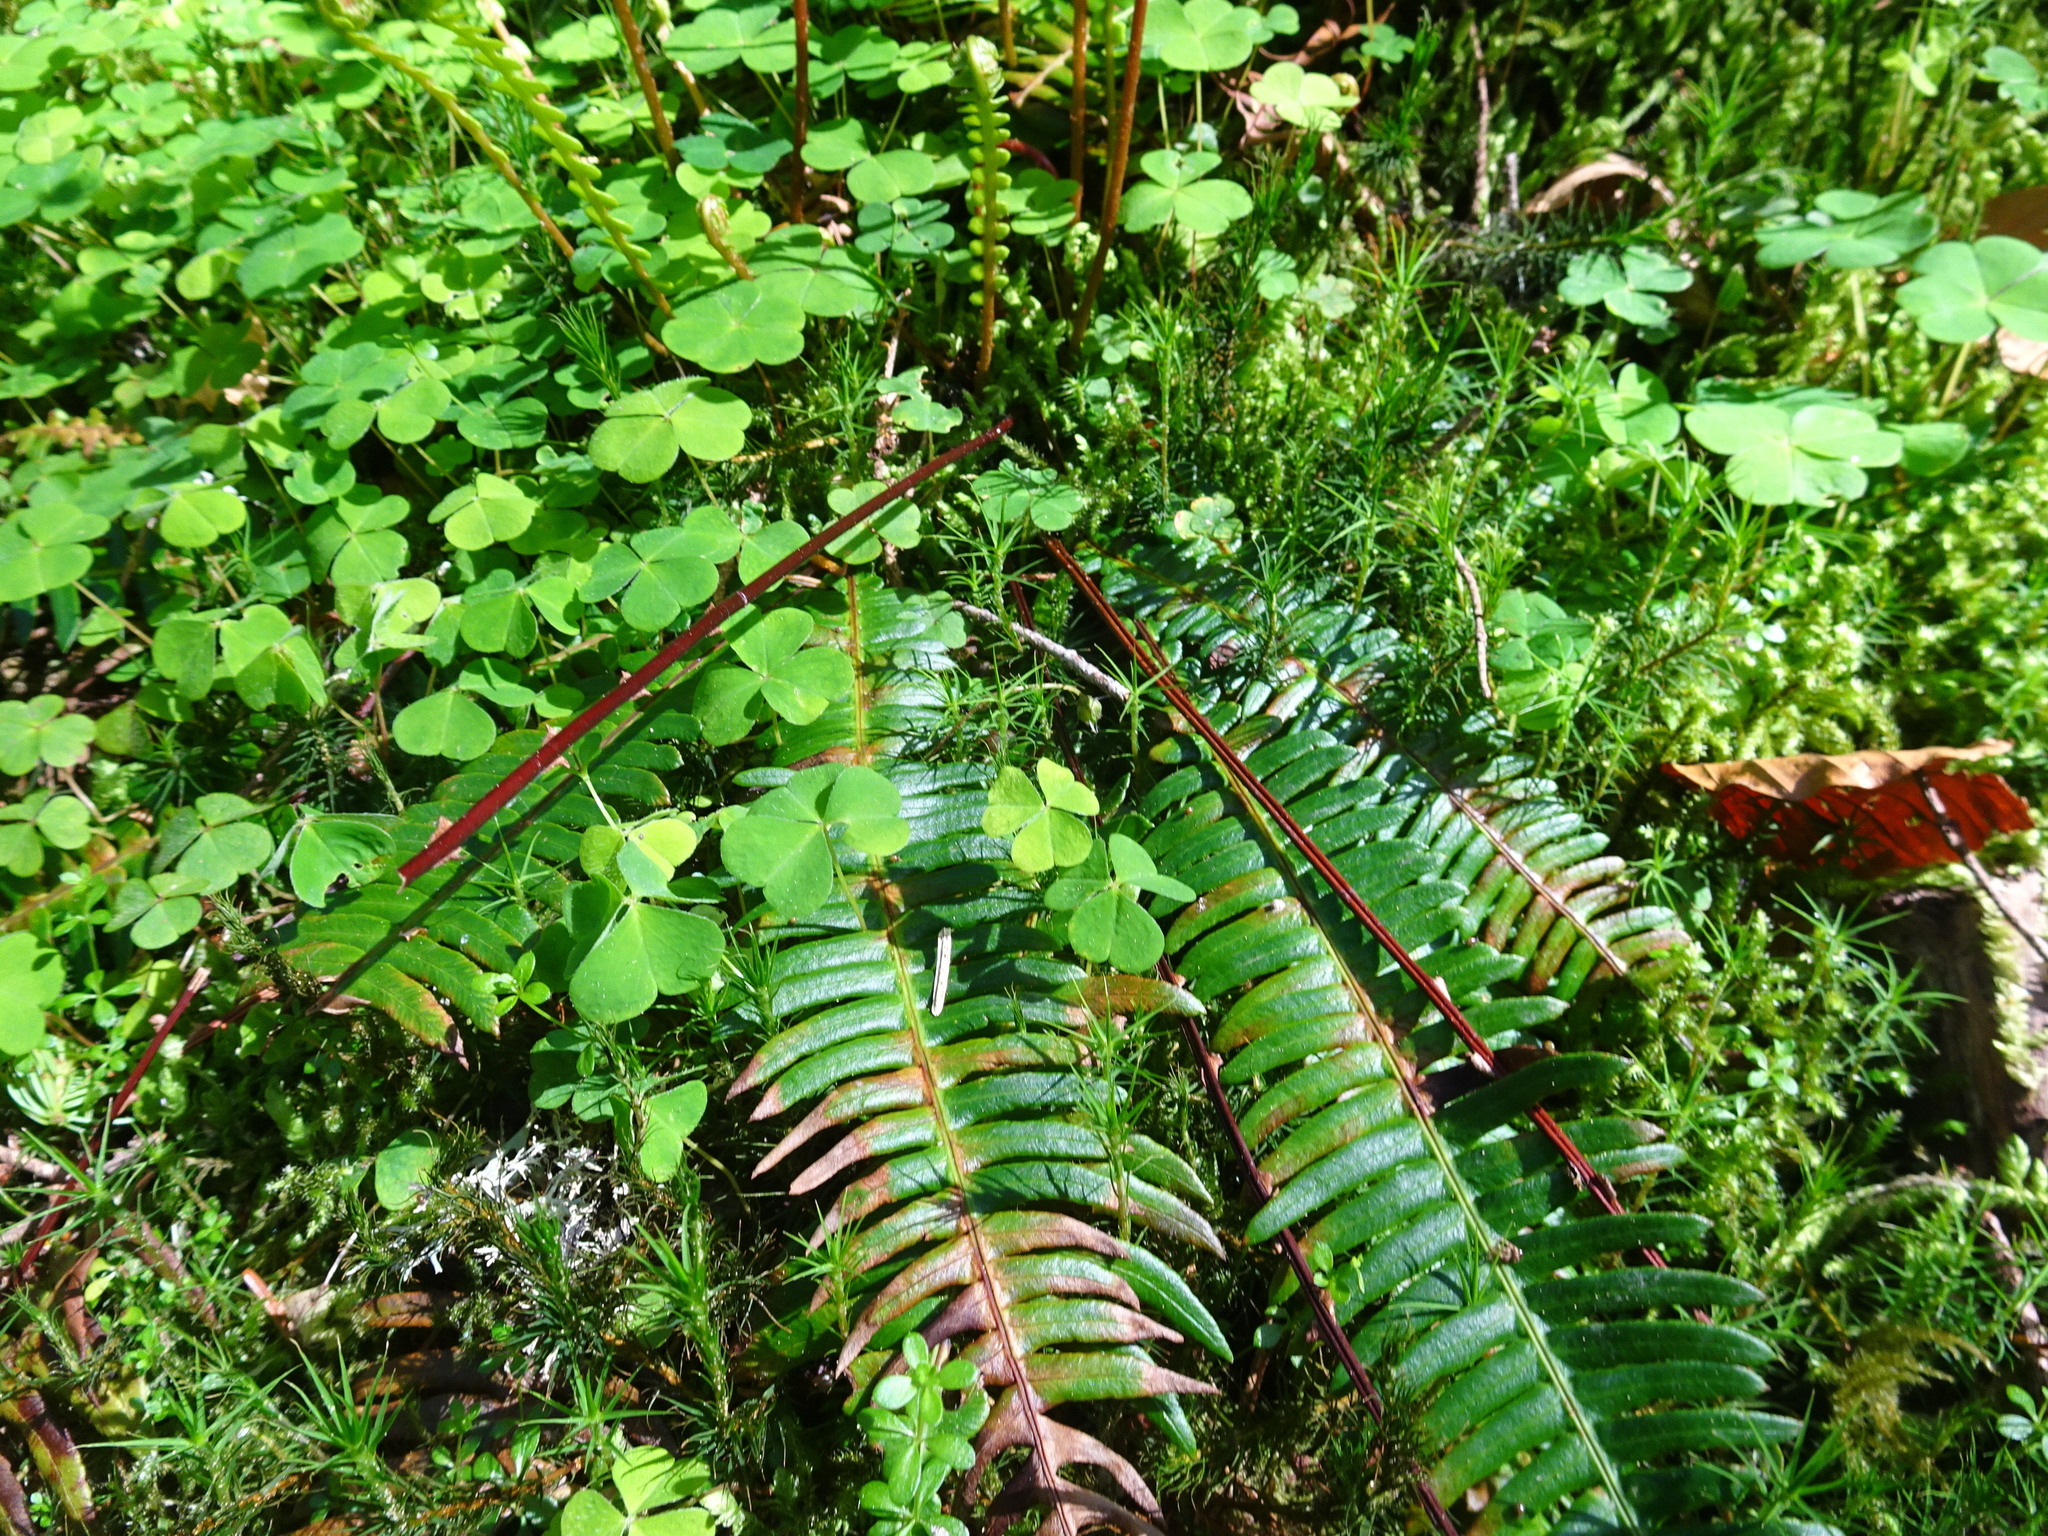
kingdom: Plantae
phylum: Tracheophyta
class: Polypodiopsida
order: Polypodiales
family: Blechnaceae
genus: Struthiopteris
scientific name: Struthiopteris spicant
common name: Deer fern
